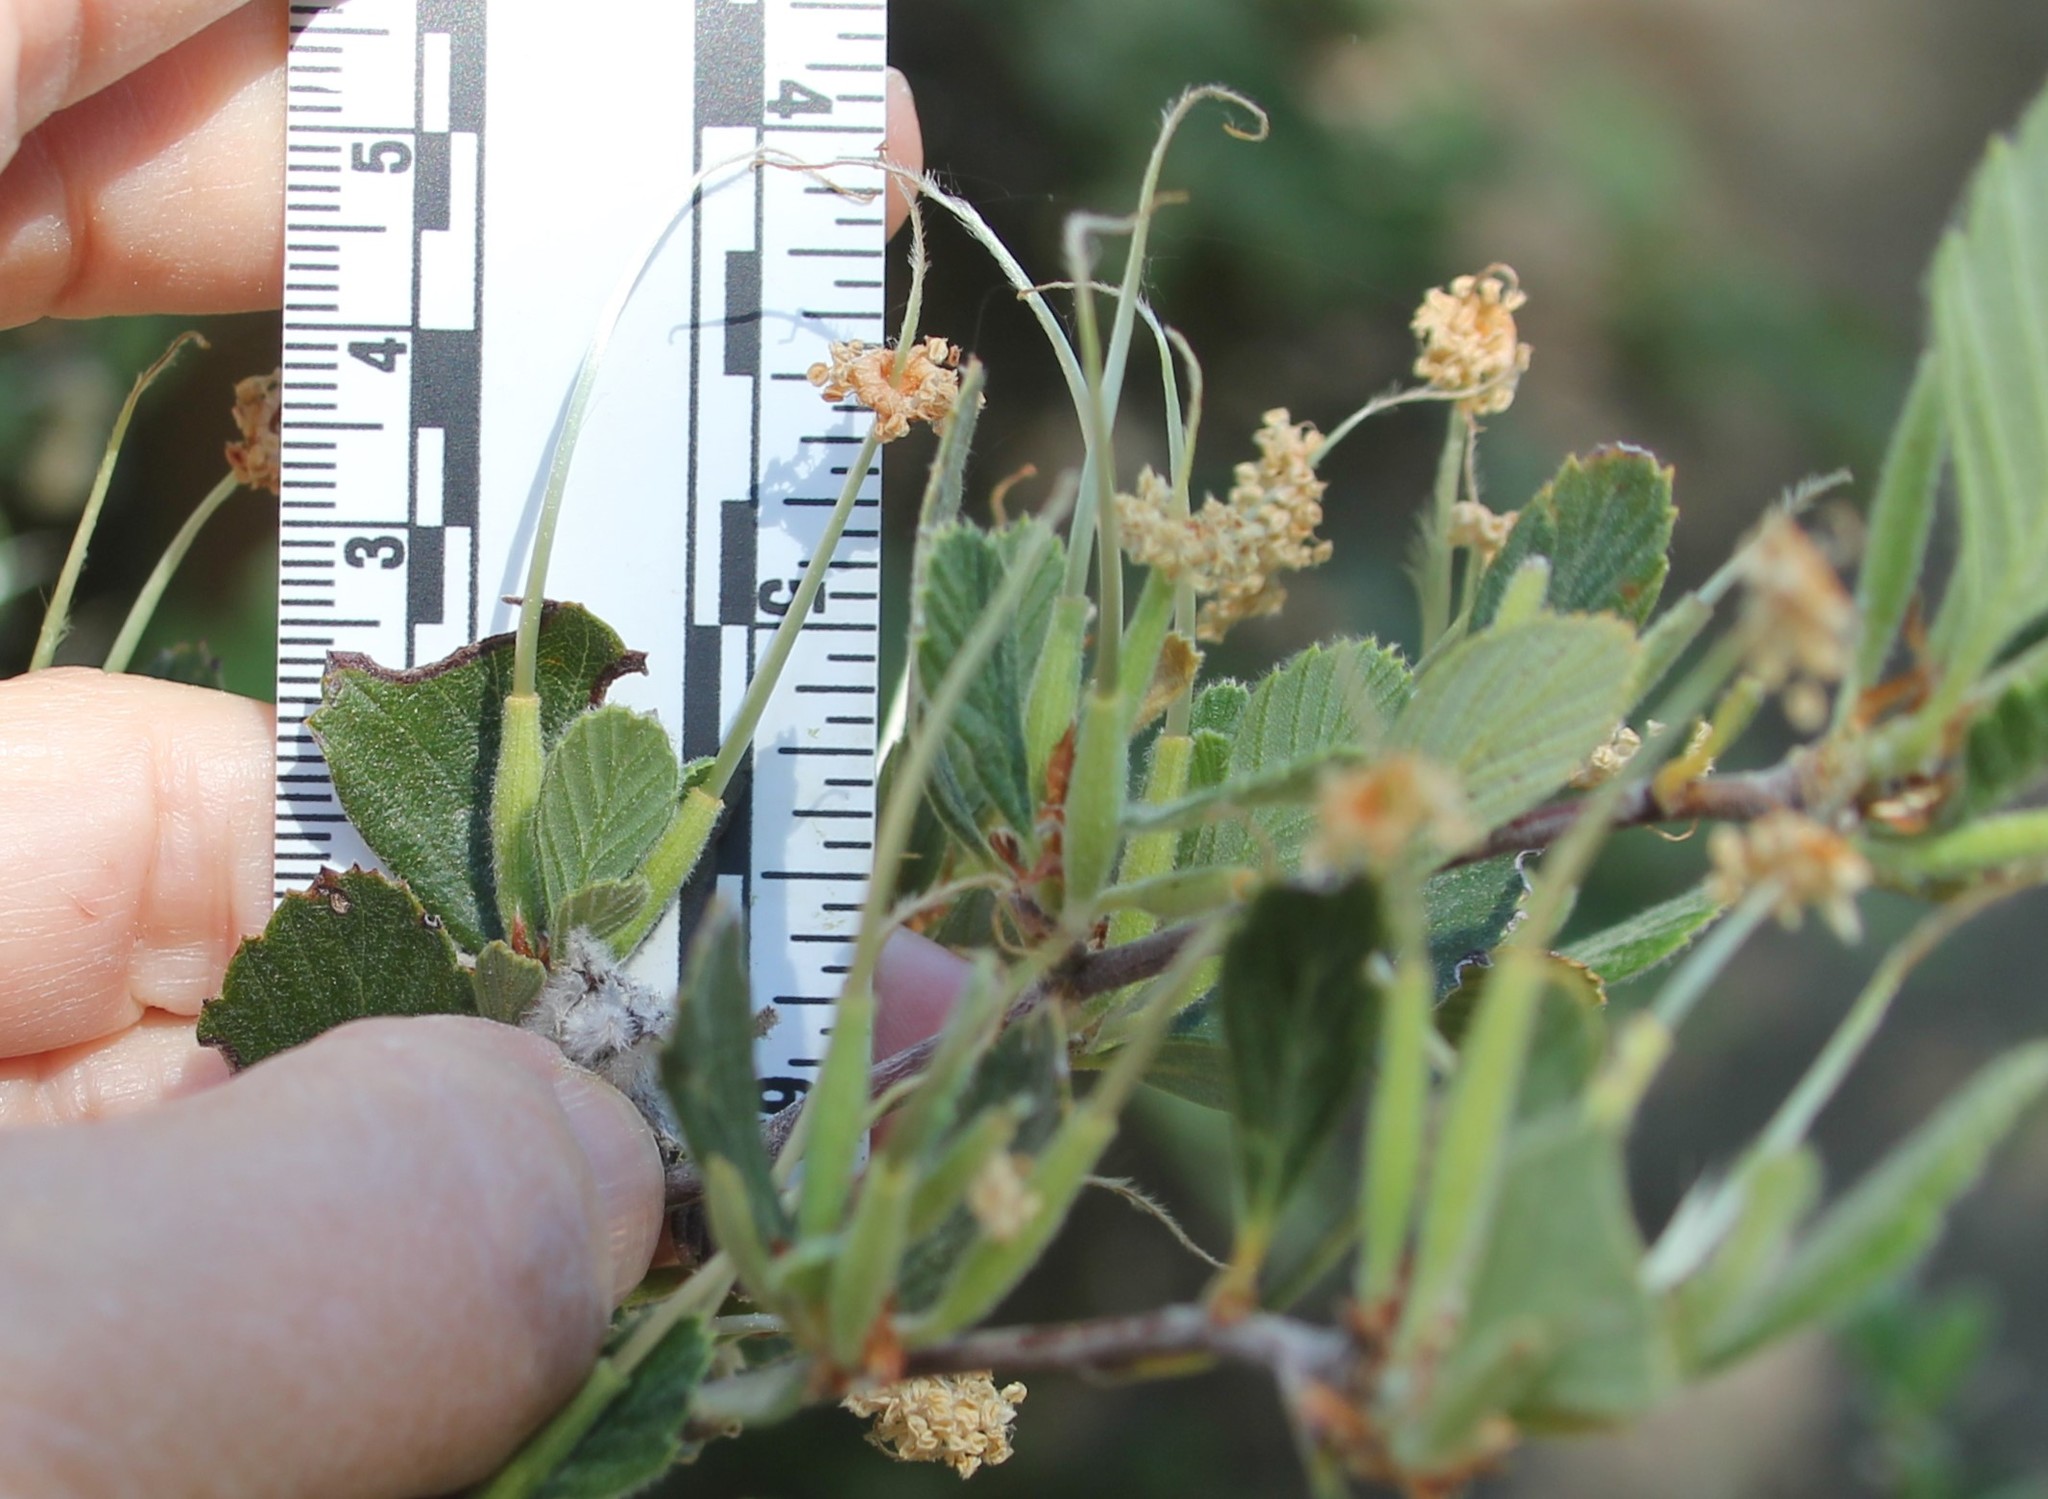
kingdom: Plantae
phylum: Tracheophyta
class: Magnoliopsida
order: Rosales
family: Rosaceae
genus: Cercocarpus
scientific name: Cercocarpus betuloides
